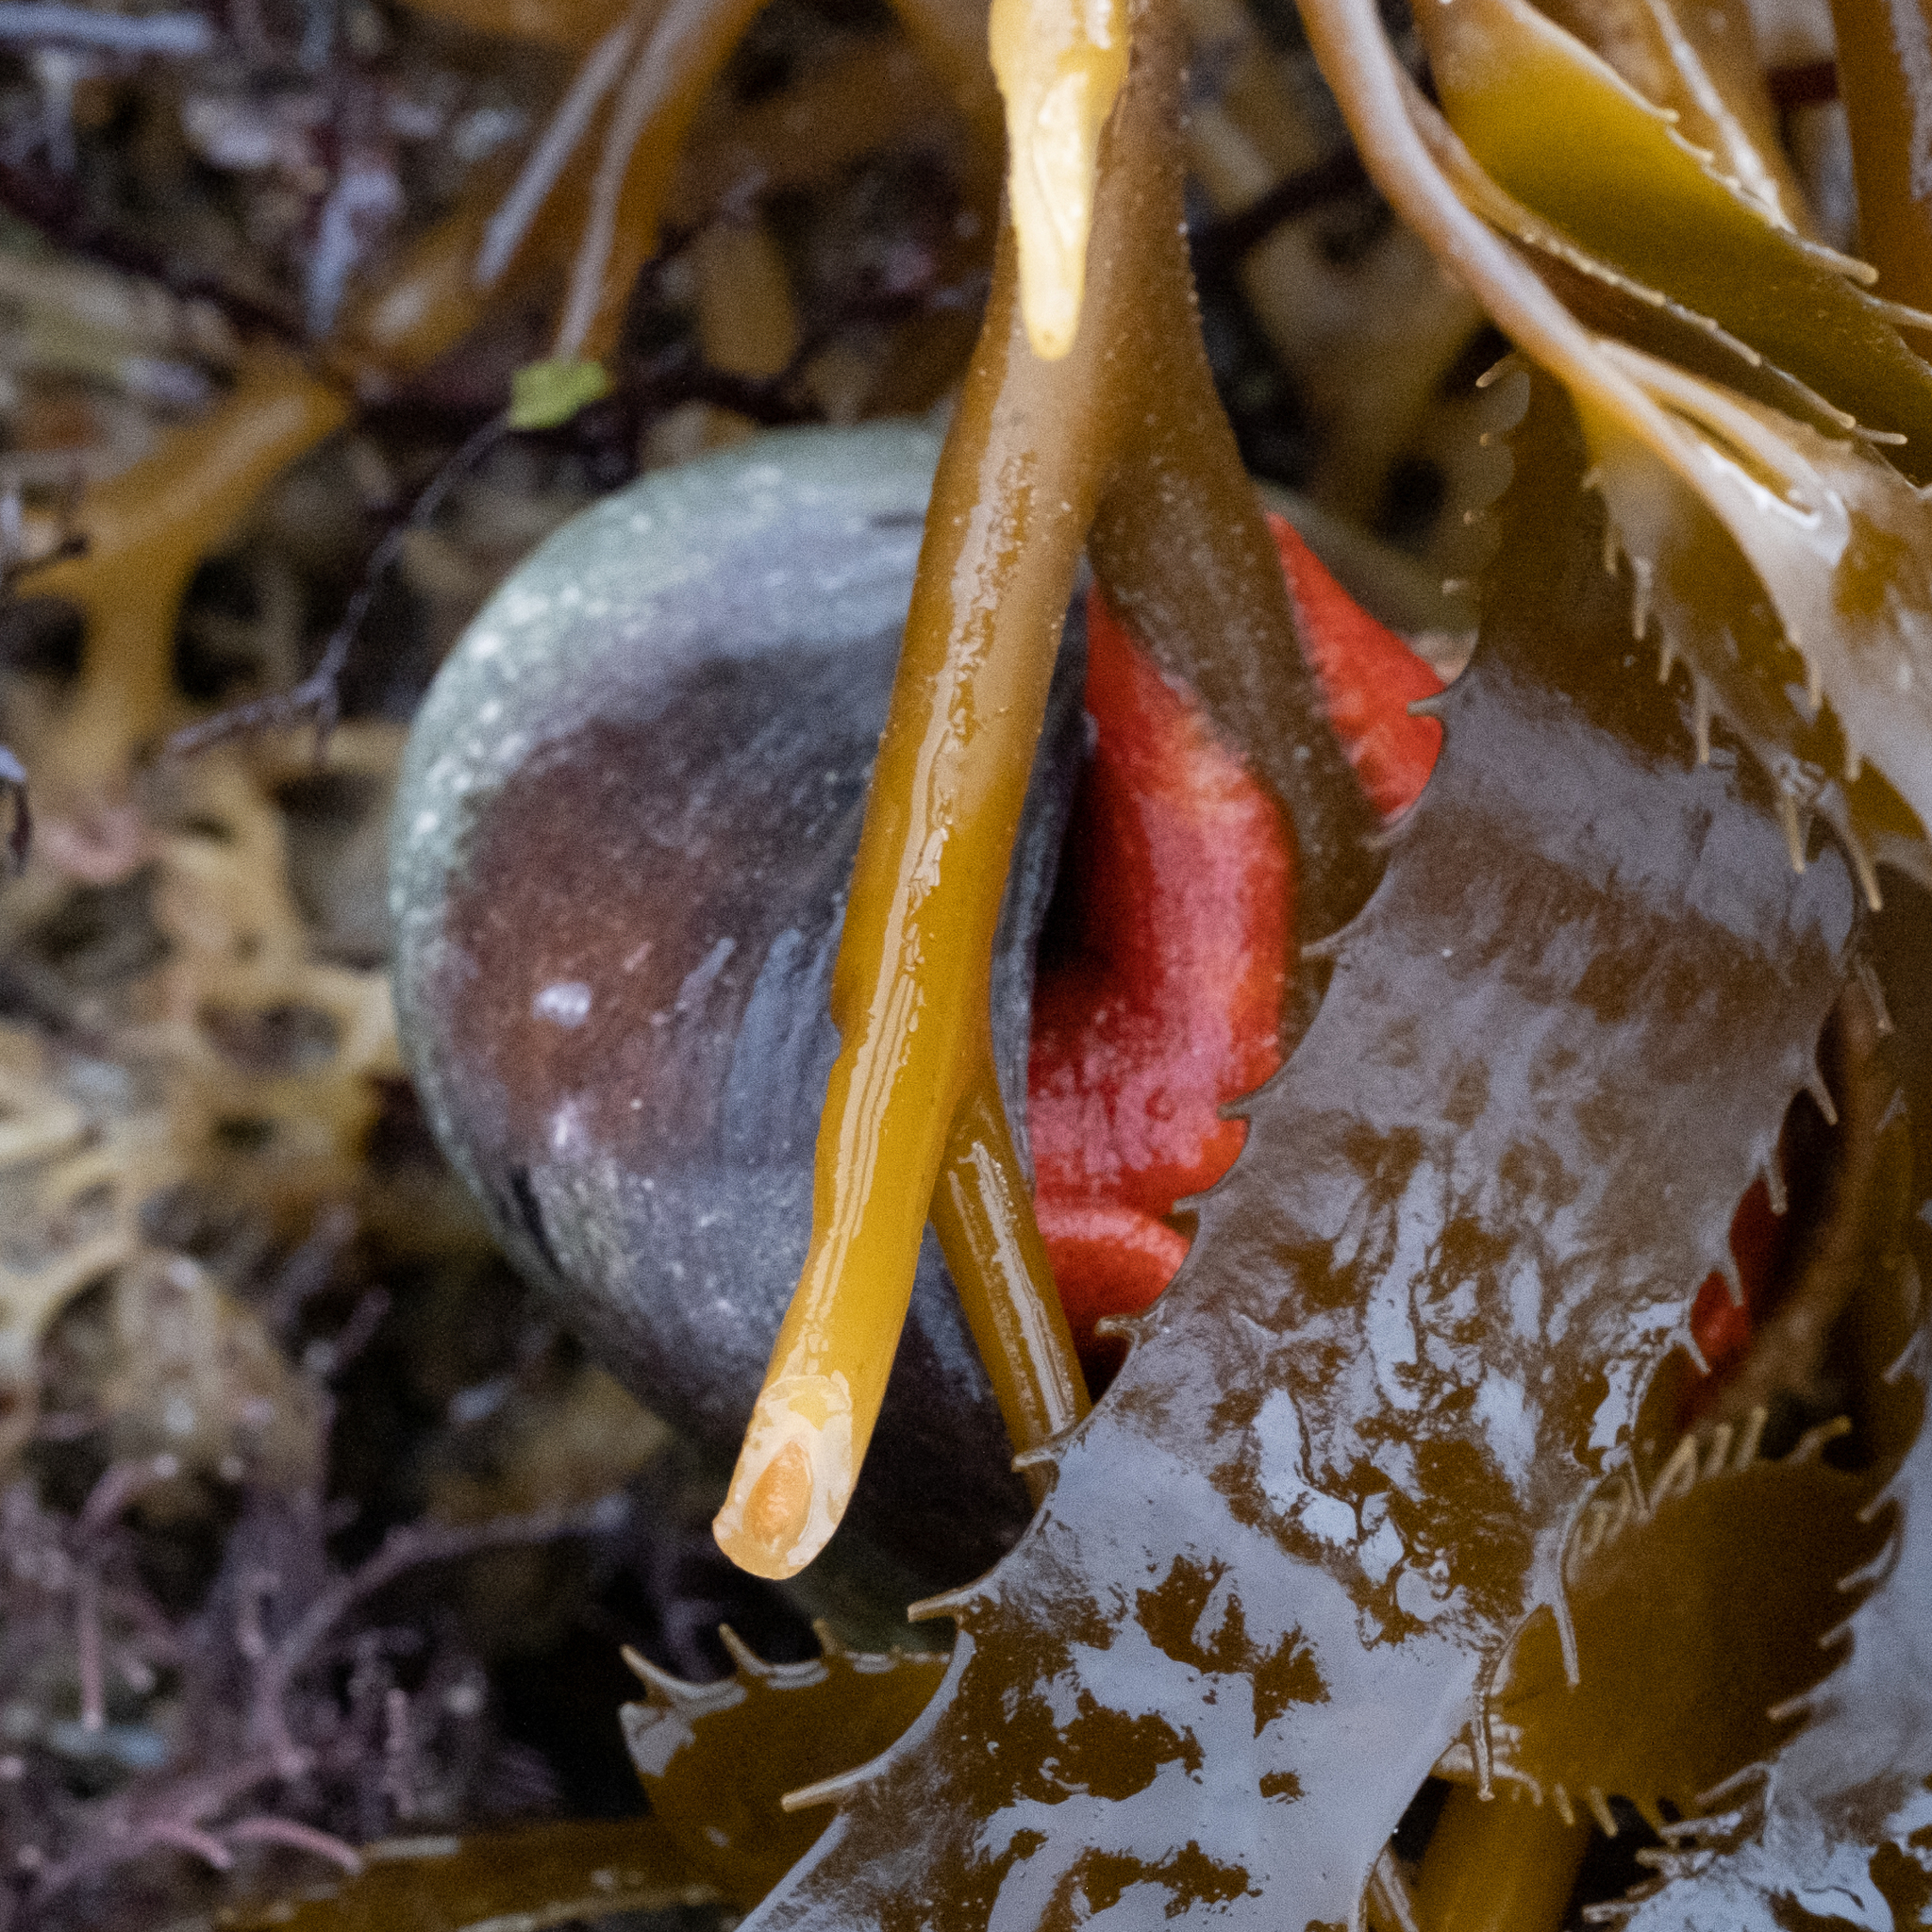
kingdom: Animalia
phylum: Mollusca
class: Gastropoda
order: Trochida
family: Tegulidae
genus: Norrisia
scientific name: Norrisia norrisii
